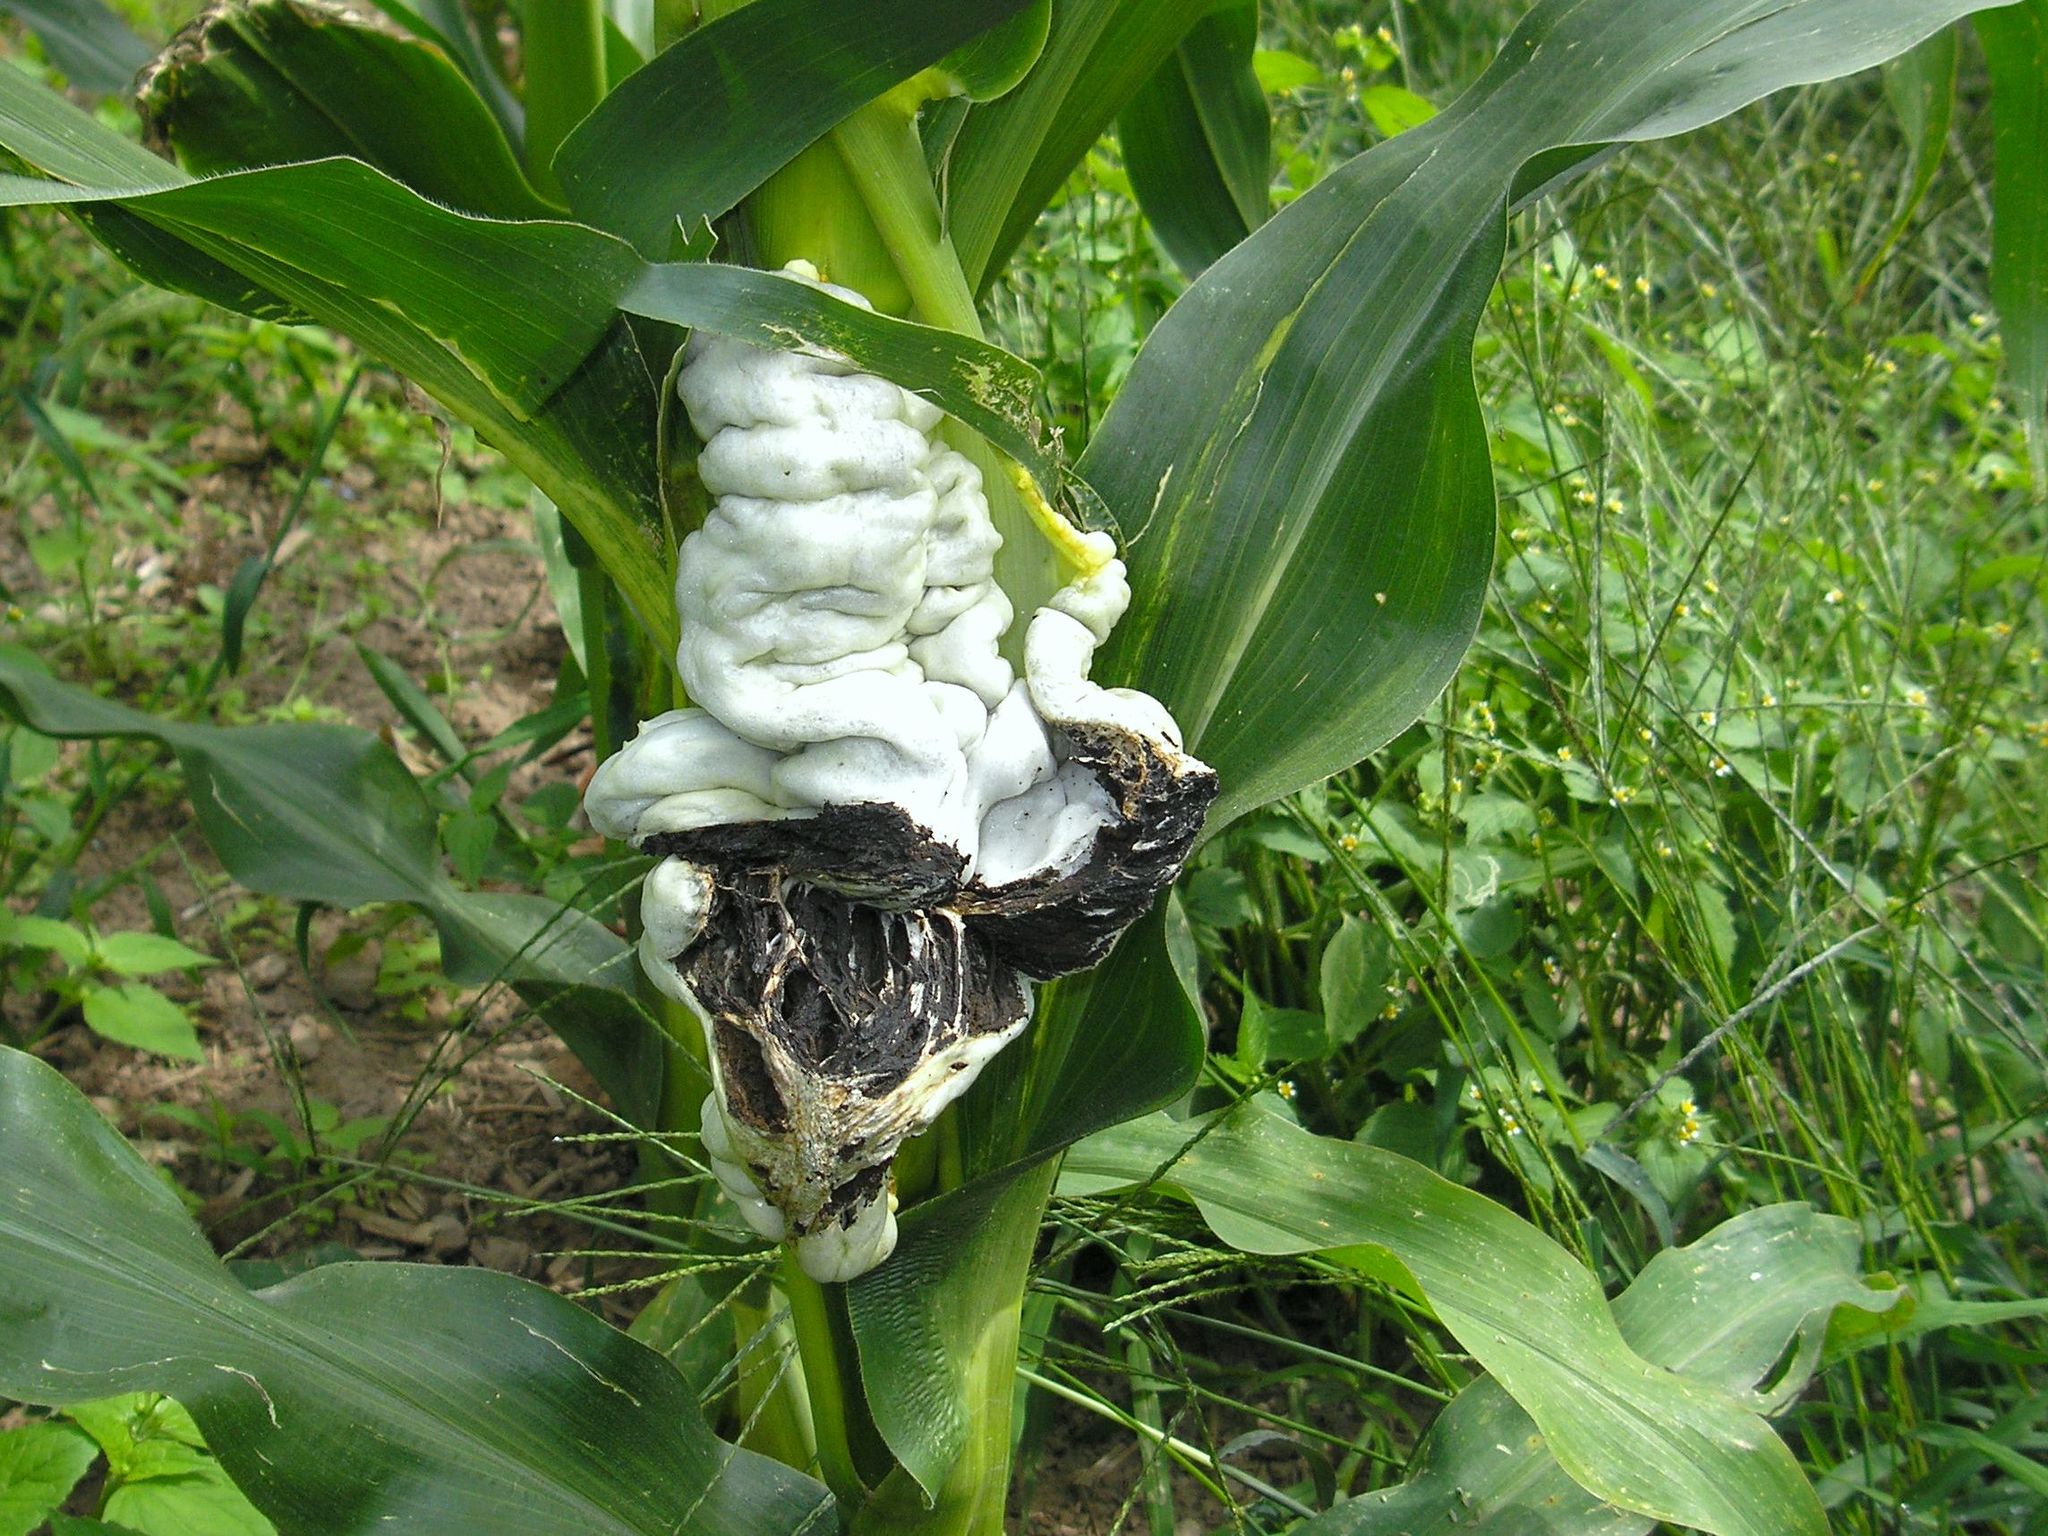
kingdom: Fungi
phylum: Basidiomycota
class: Ustilaginomycetes
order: Ustilaginales
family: Ustilaginaceae
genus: Mycosarcoma
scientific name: Mycosarcoma maydis
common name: Corn smut
